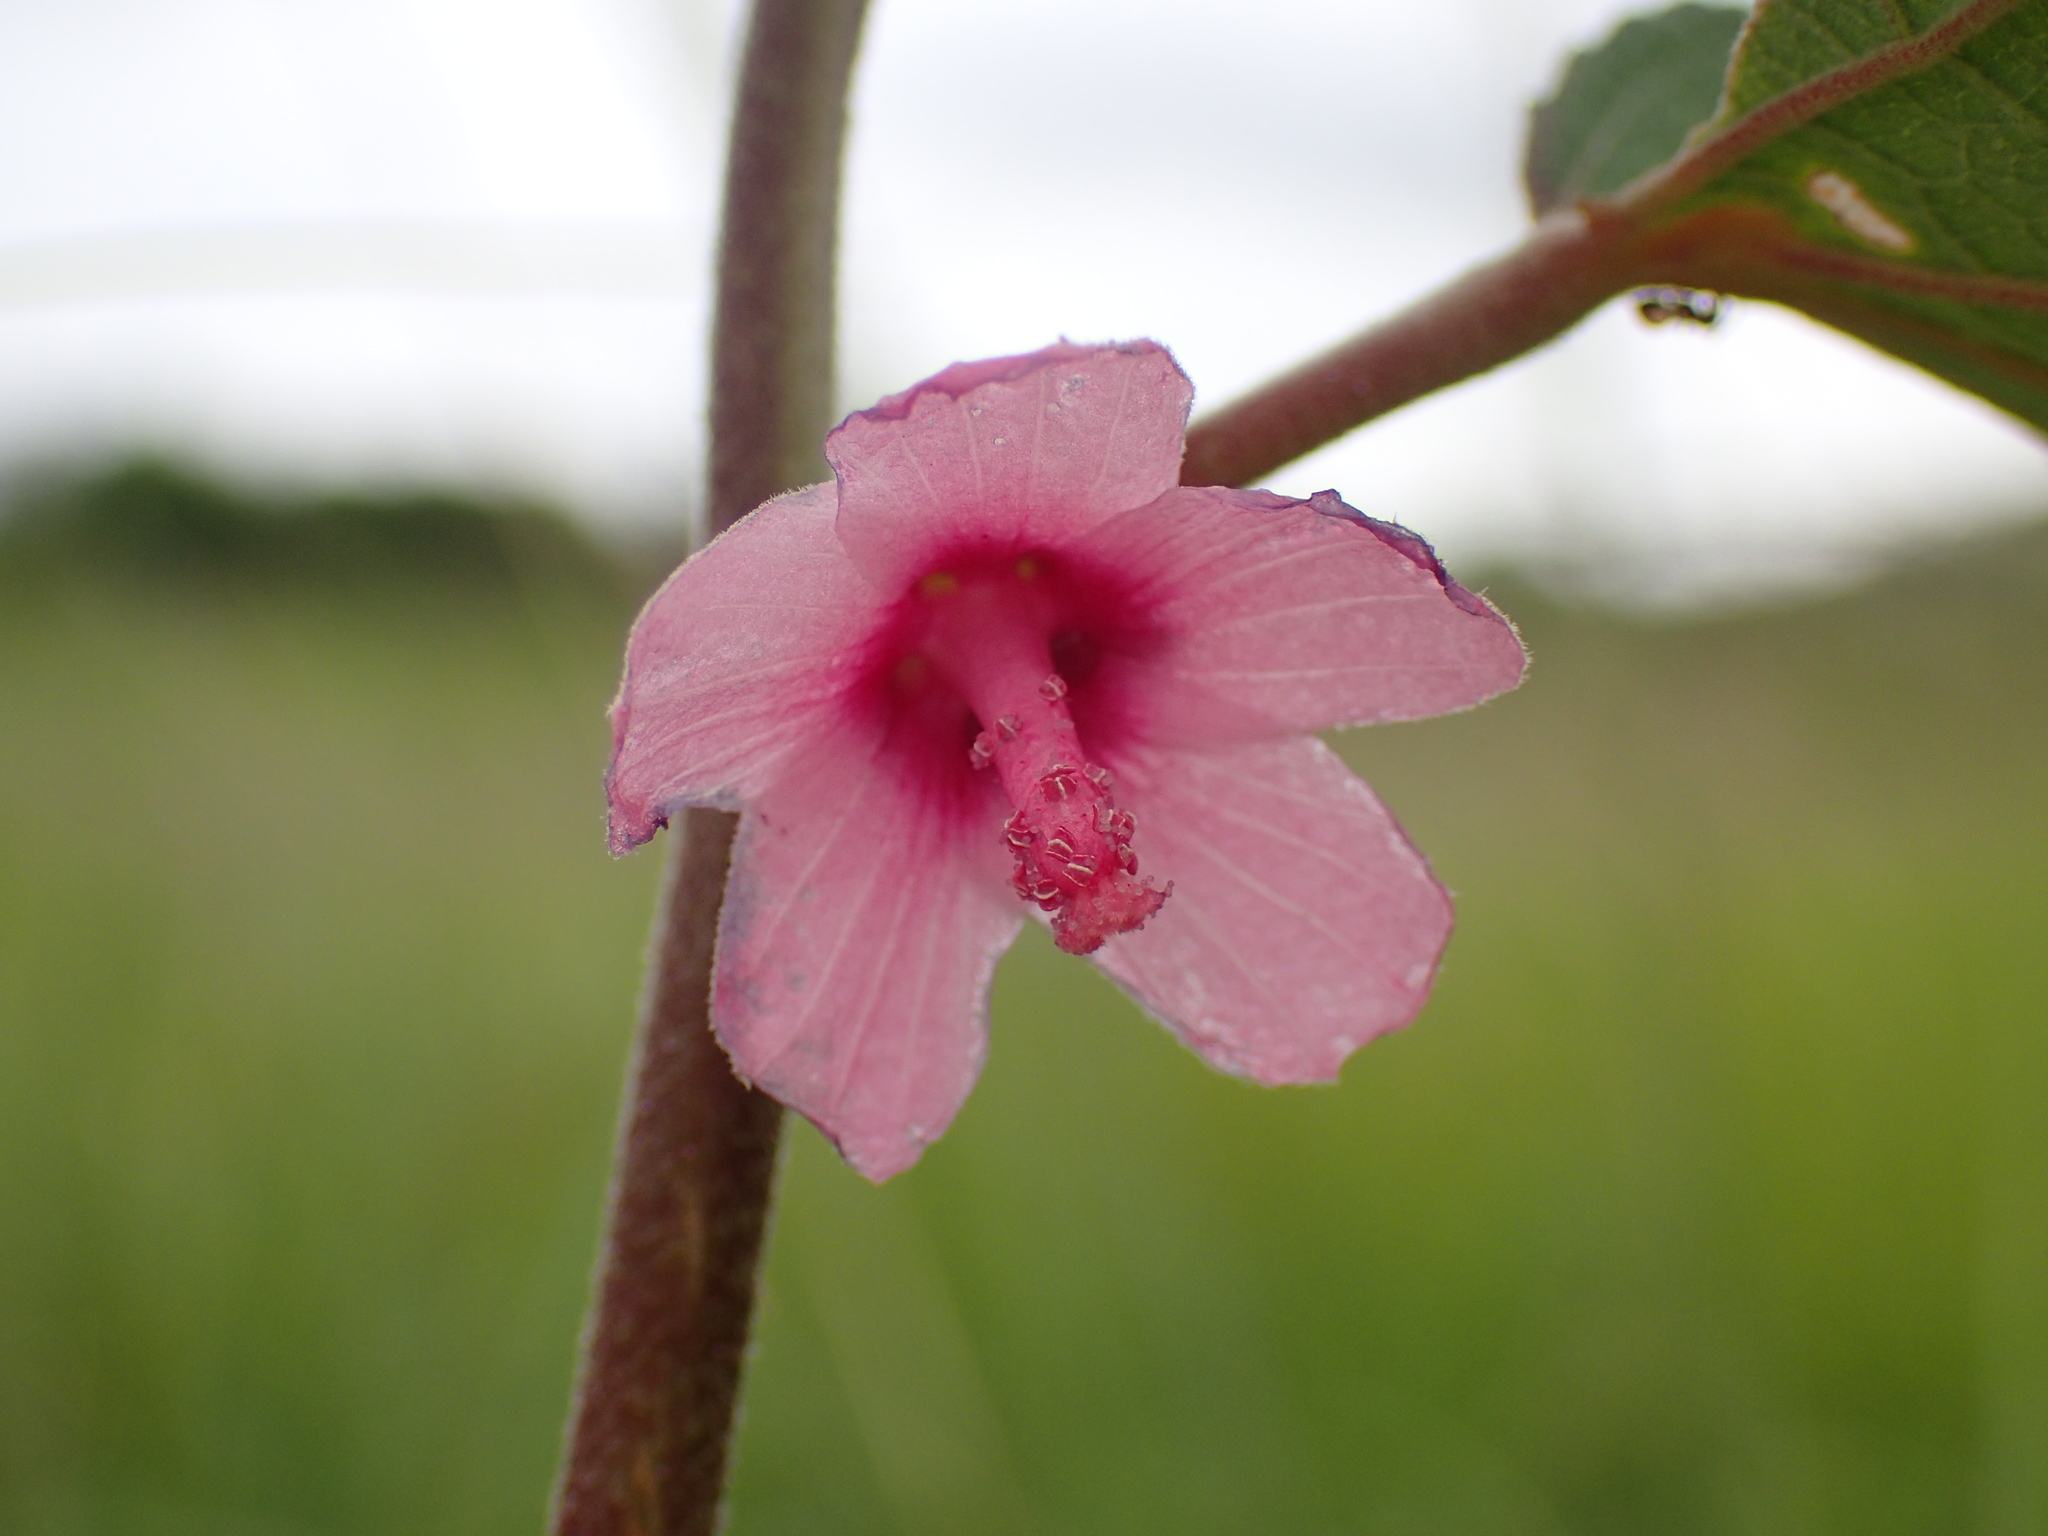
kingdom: Plantae
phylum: Tracheophyta
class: Magnoliopsida
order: Malvales
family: Malvaceae
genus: Pavonia
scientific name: Pavonia columella
